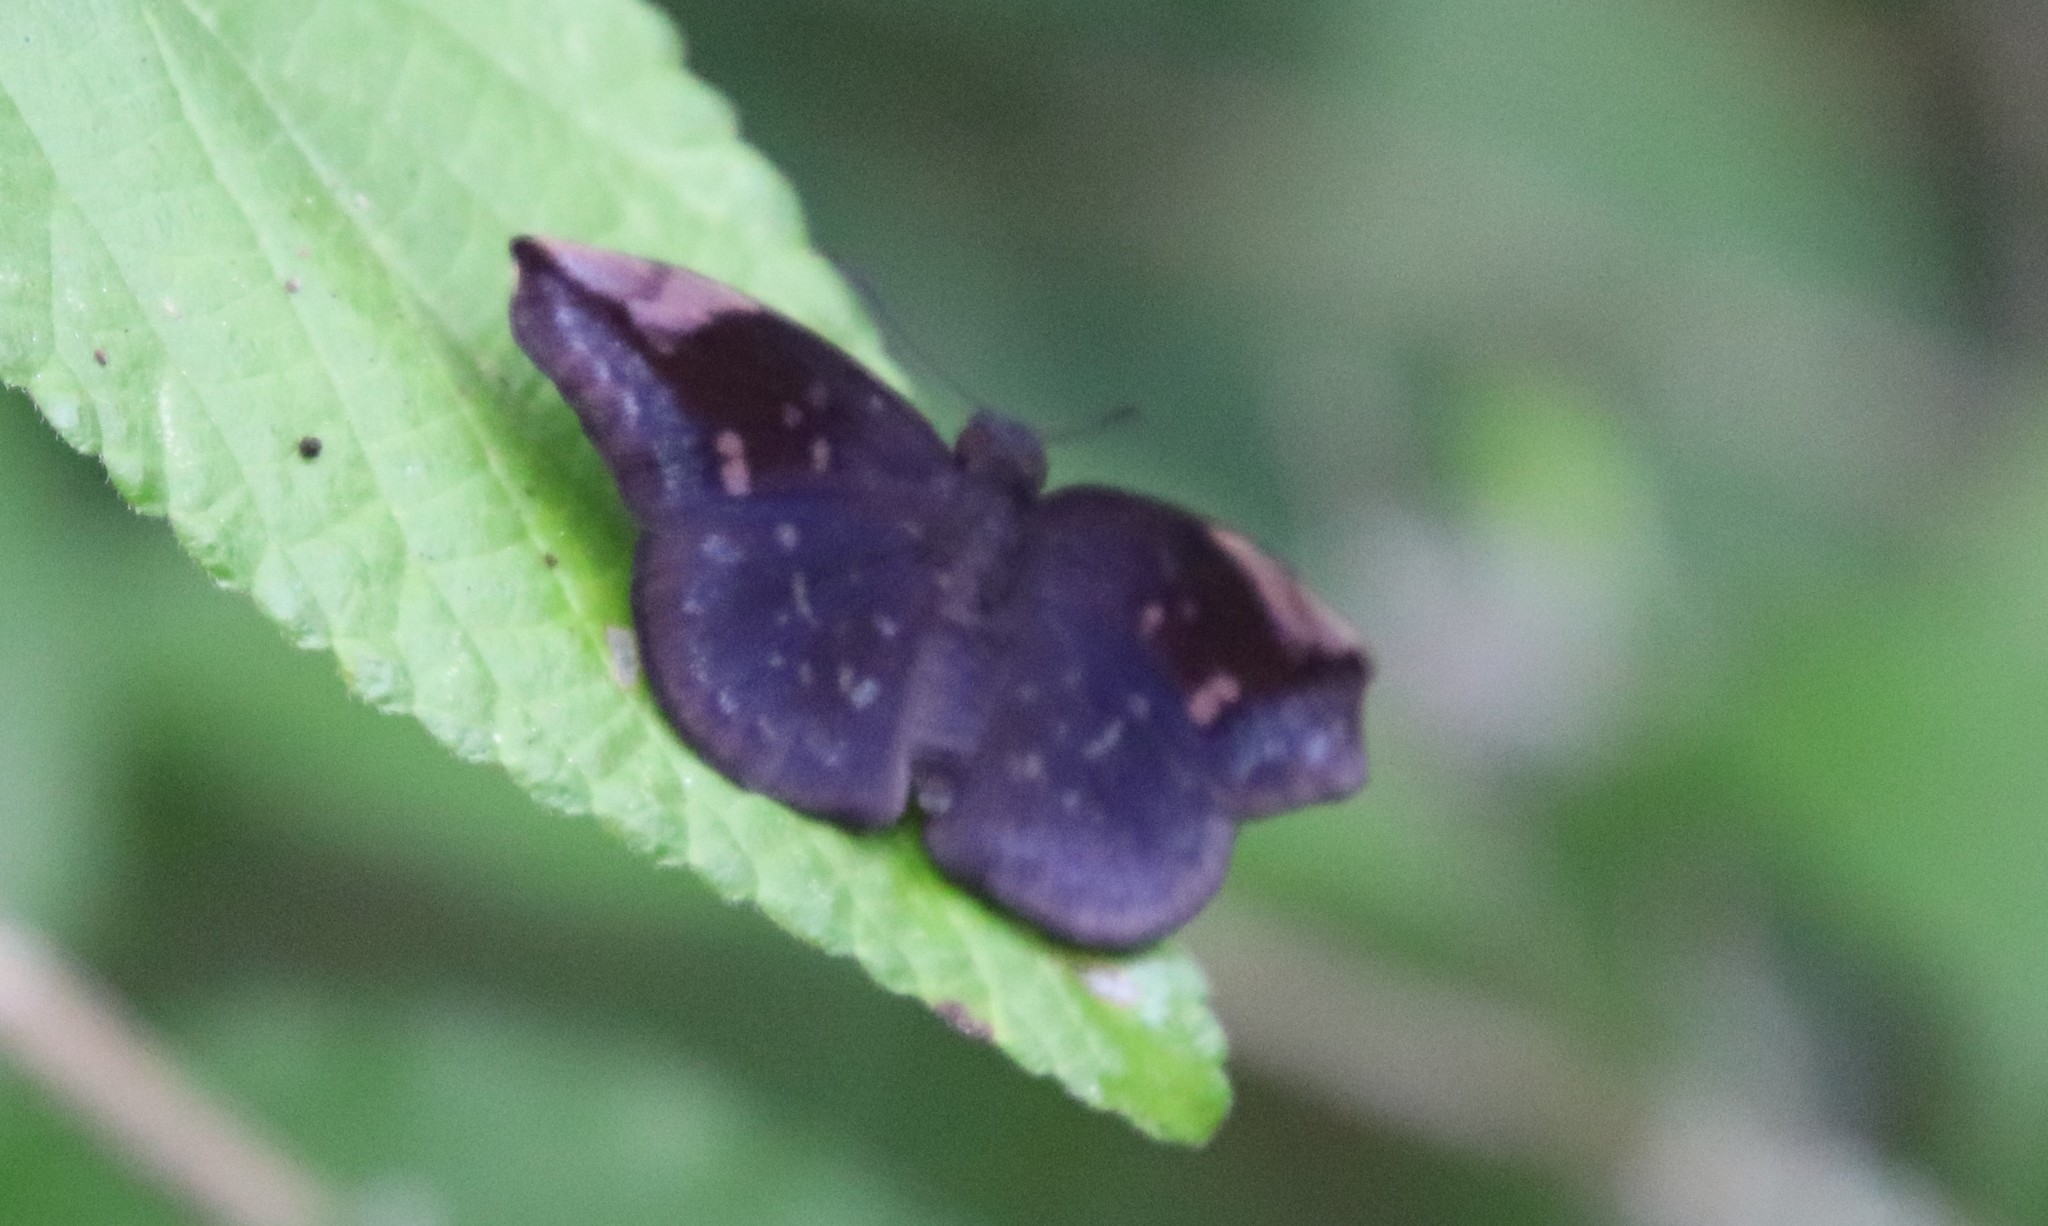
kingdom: Animalia
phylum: Arthropoda
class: Insecta
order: Lepidoptera
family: Hesperiidae
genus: Achlyodes
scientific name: Achlyodes thraso
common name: Sickle-winged skipper
